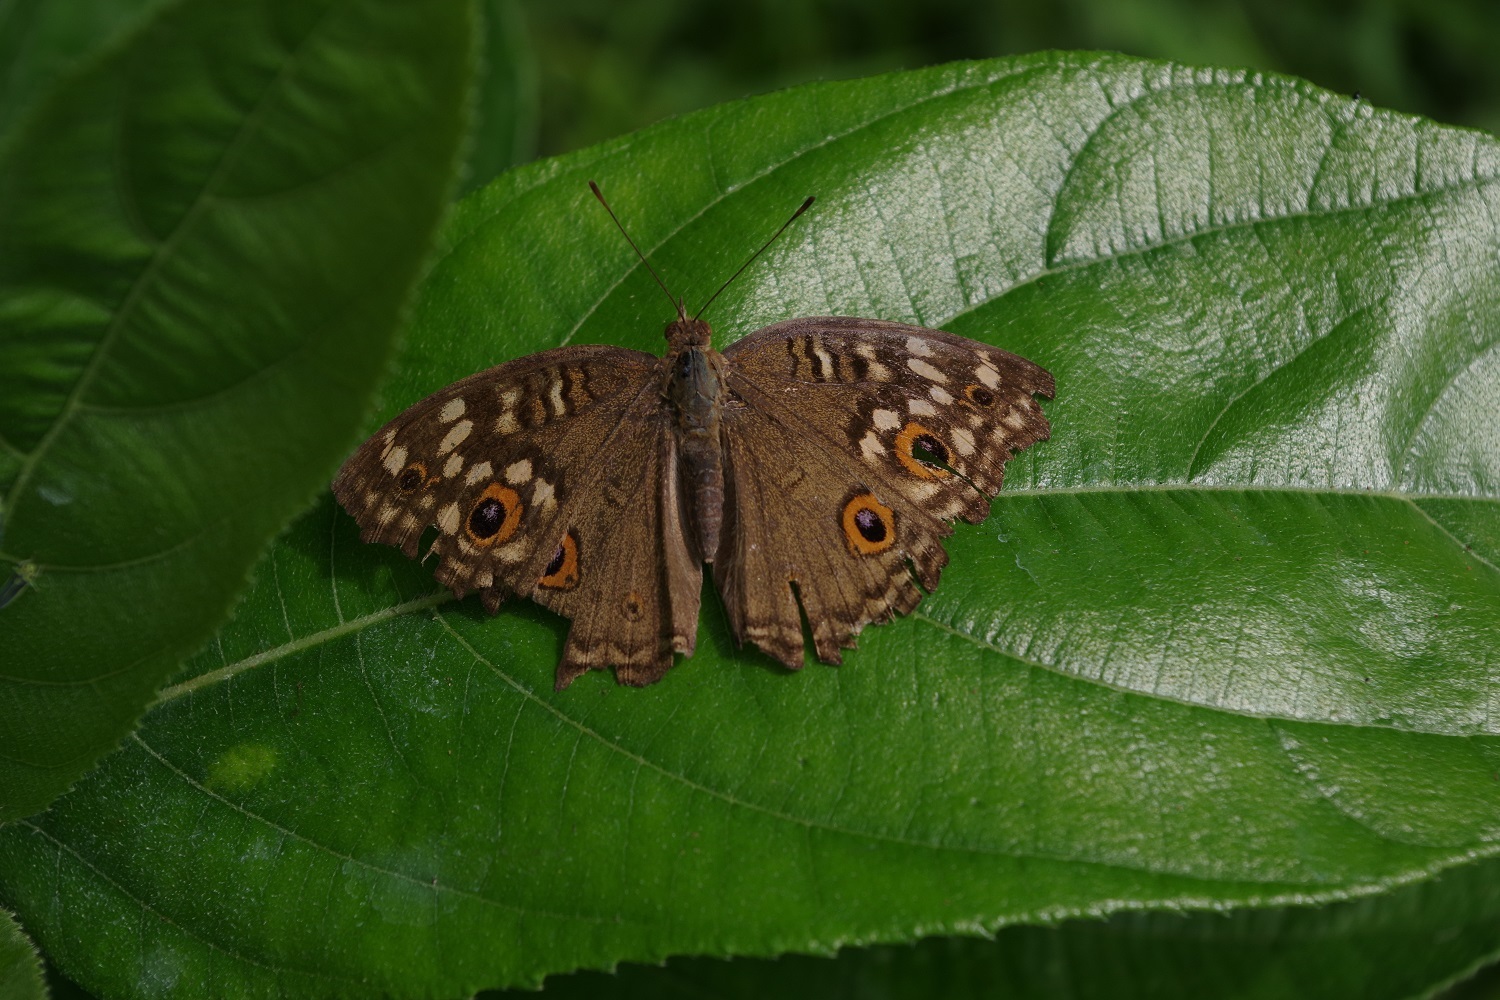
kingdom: Animalia
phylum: Arthropoda
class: Insecta
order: Lepidoptera
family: Nymphalidae
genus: Junonia
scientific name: Junonia lemonias
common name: Lemon pansy
